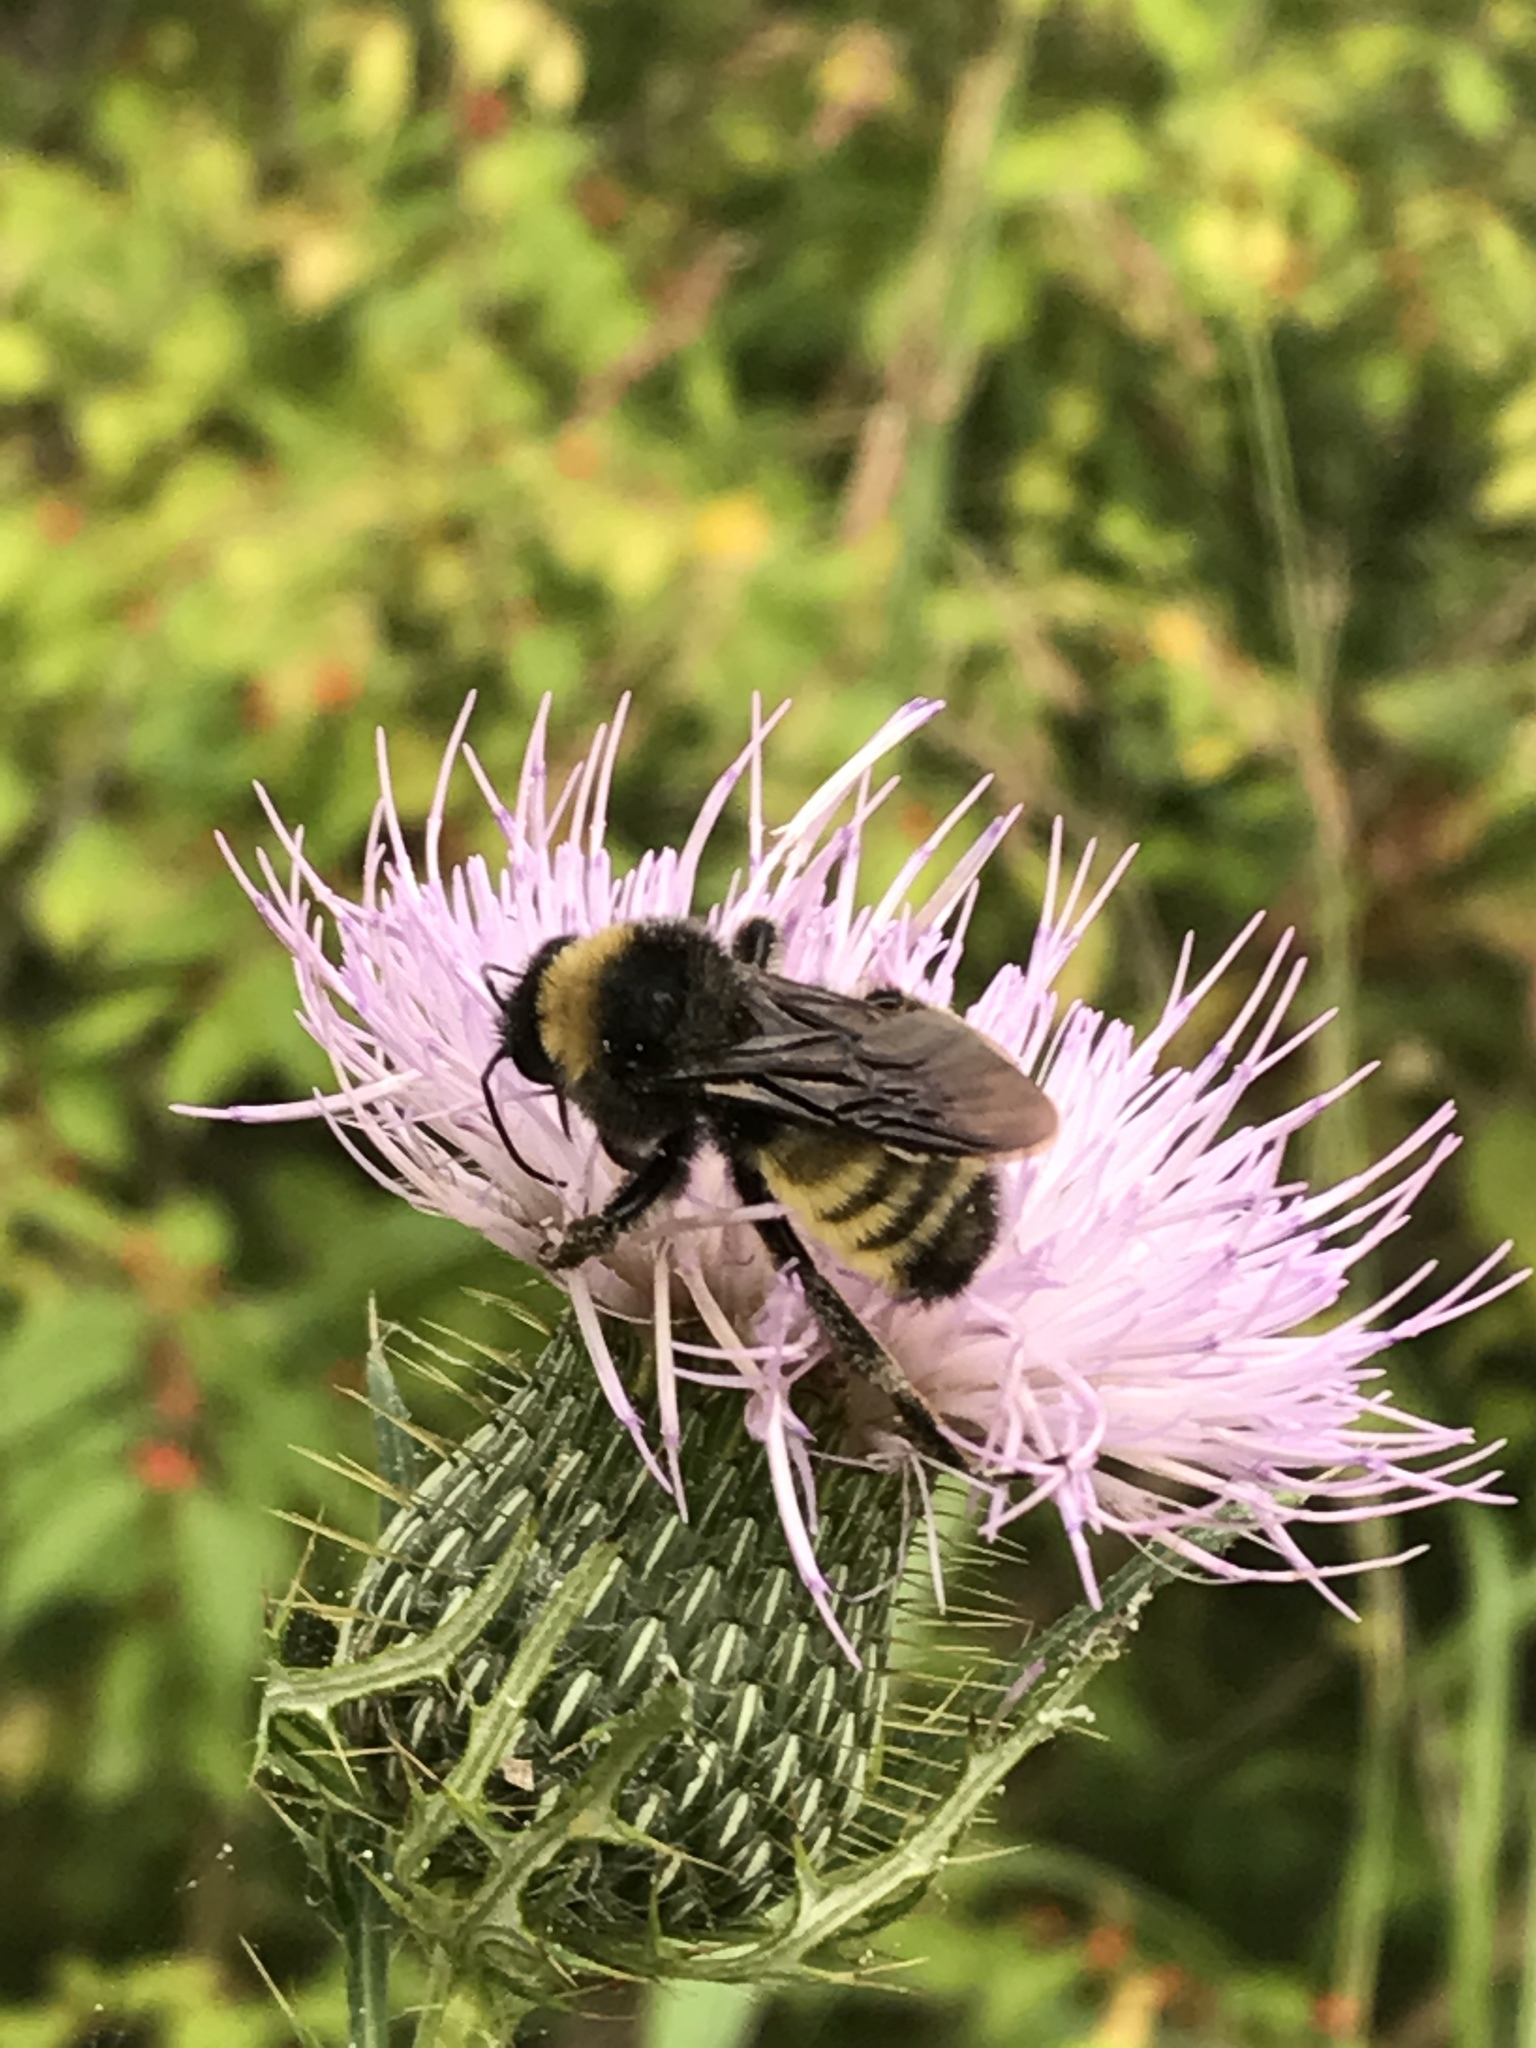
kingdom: Animalia
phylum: Arthropoda
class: Insecta
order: Hymenoptera
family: Apidae
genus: Bombus
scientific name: Bombus pensylvanicus
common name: Bumble bee
